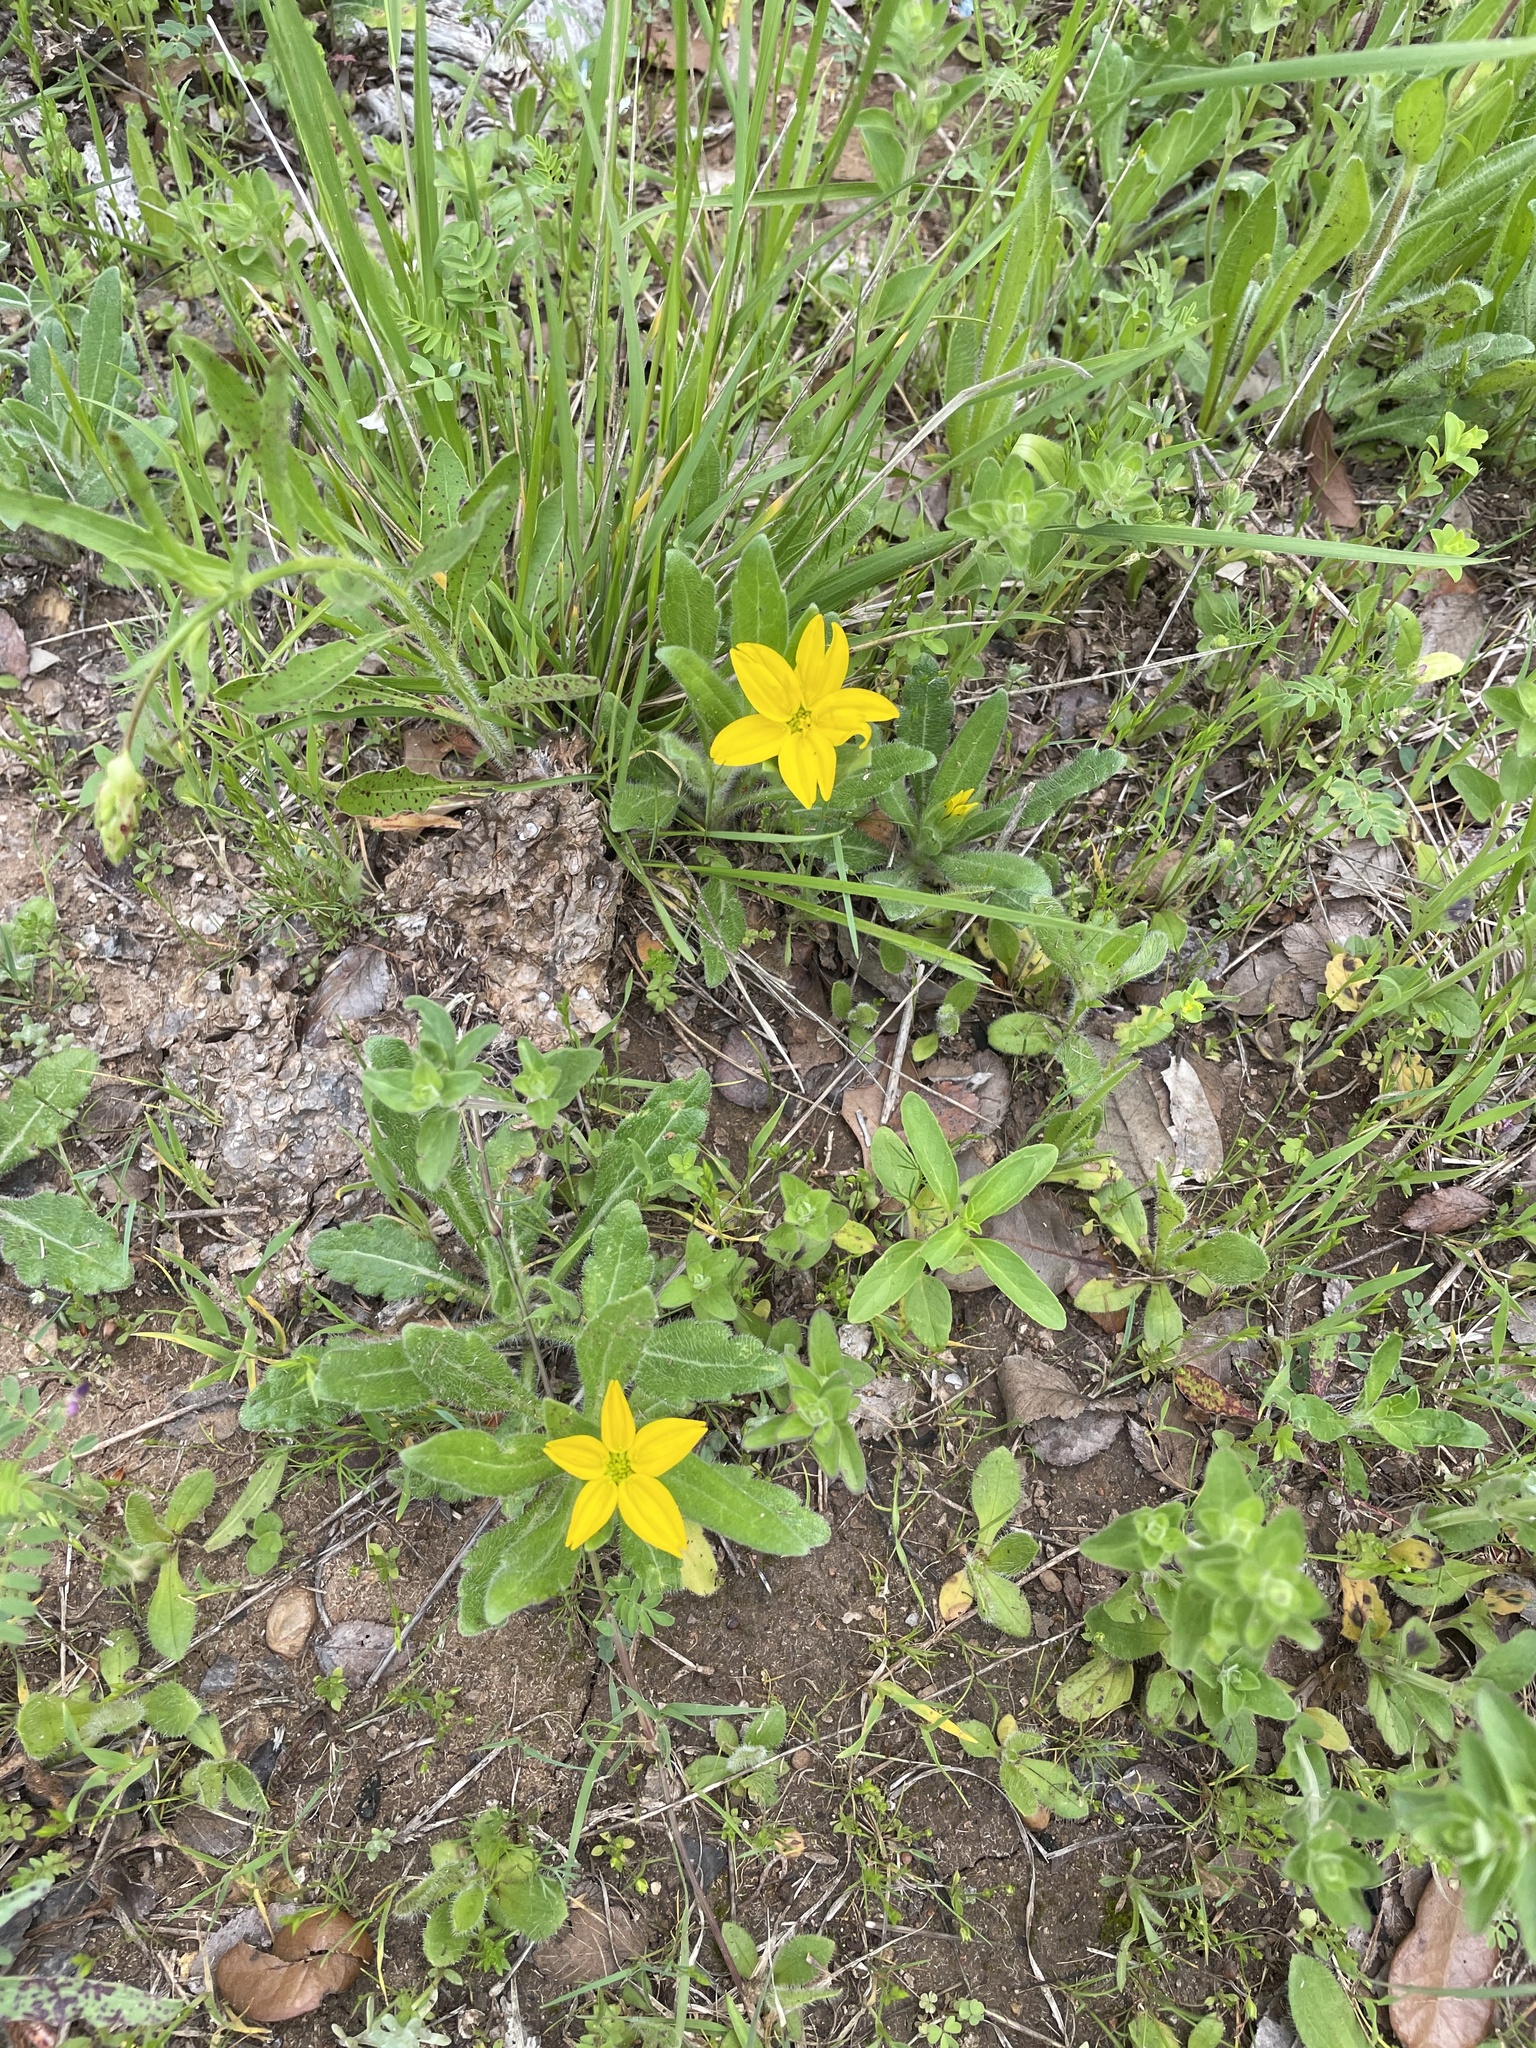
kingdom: Plantae
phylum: Tracheophyta
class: Magnoliopsida
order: Asterales
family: Asteraceae
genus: Lindheimera
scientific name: Lindheimera texana
